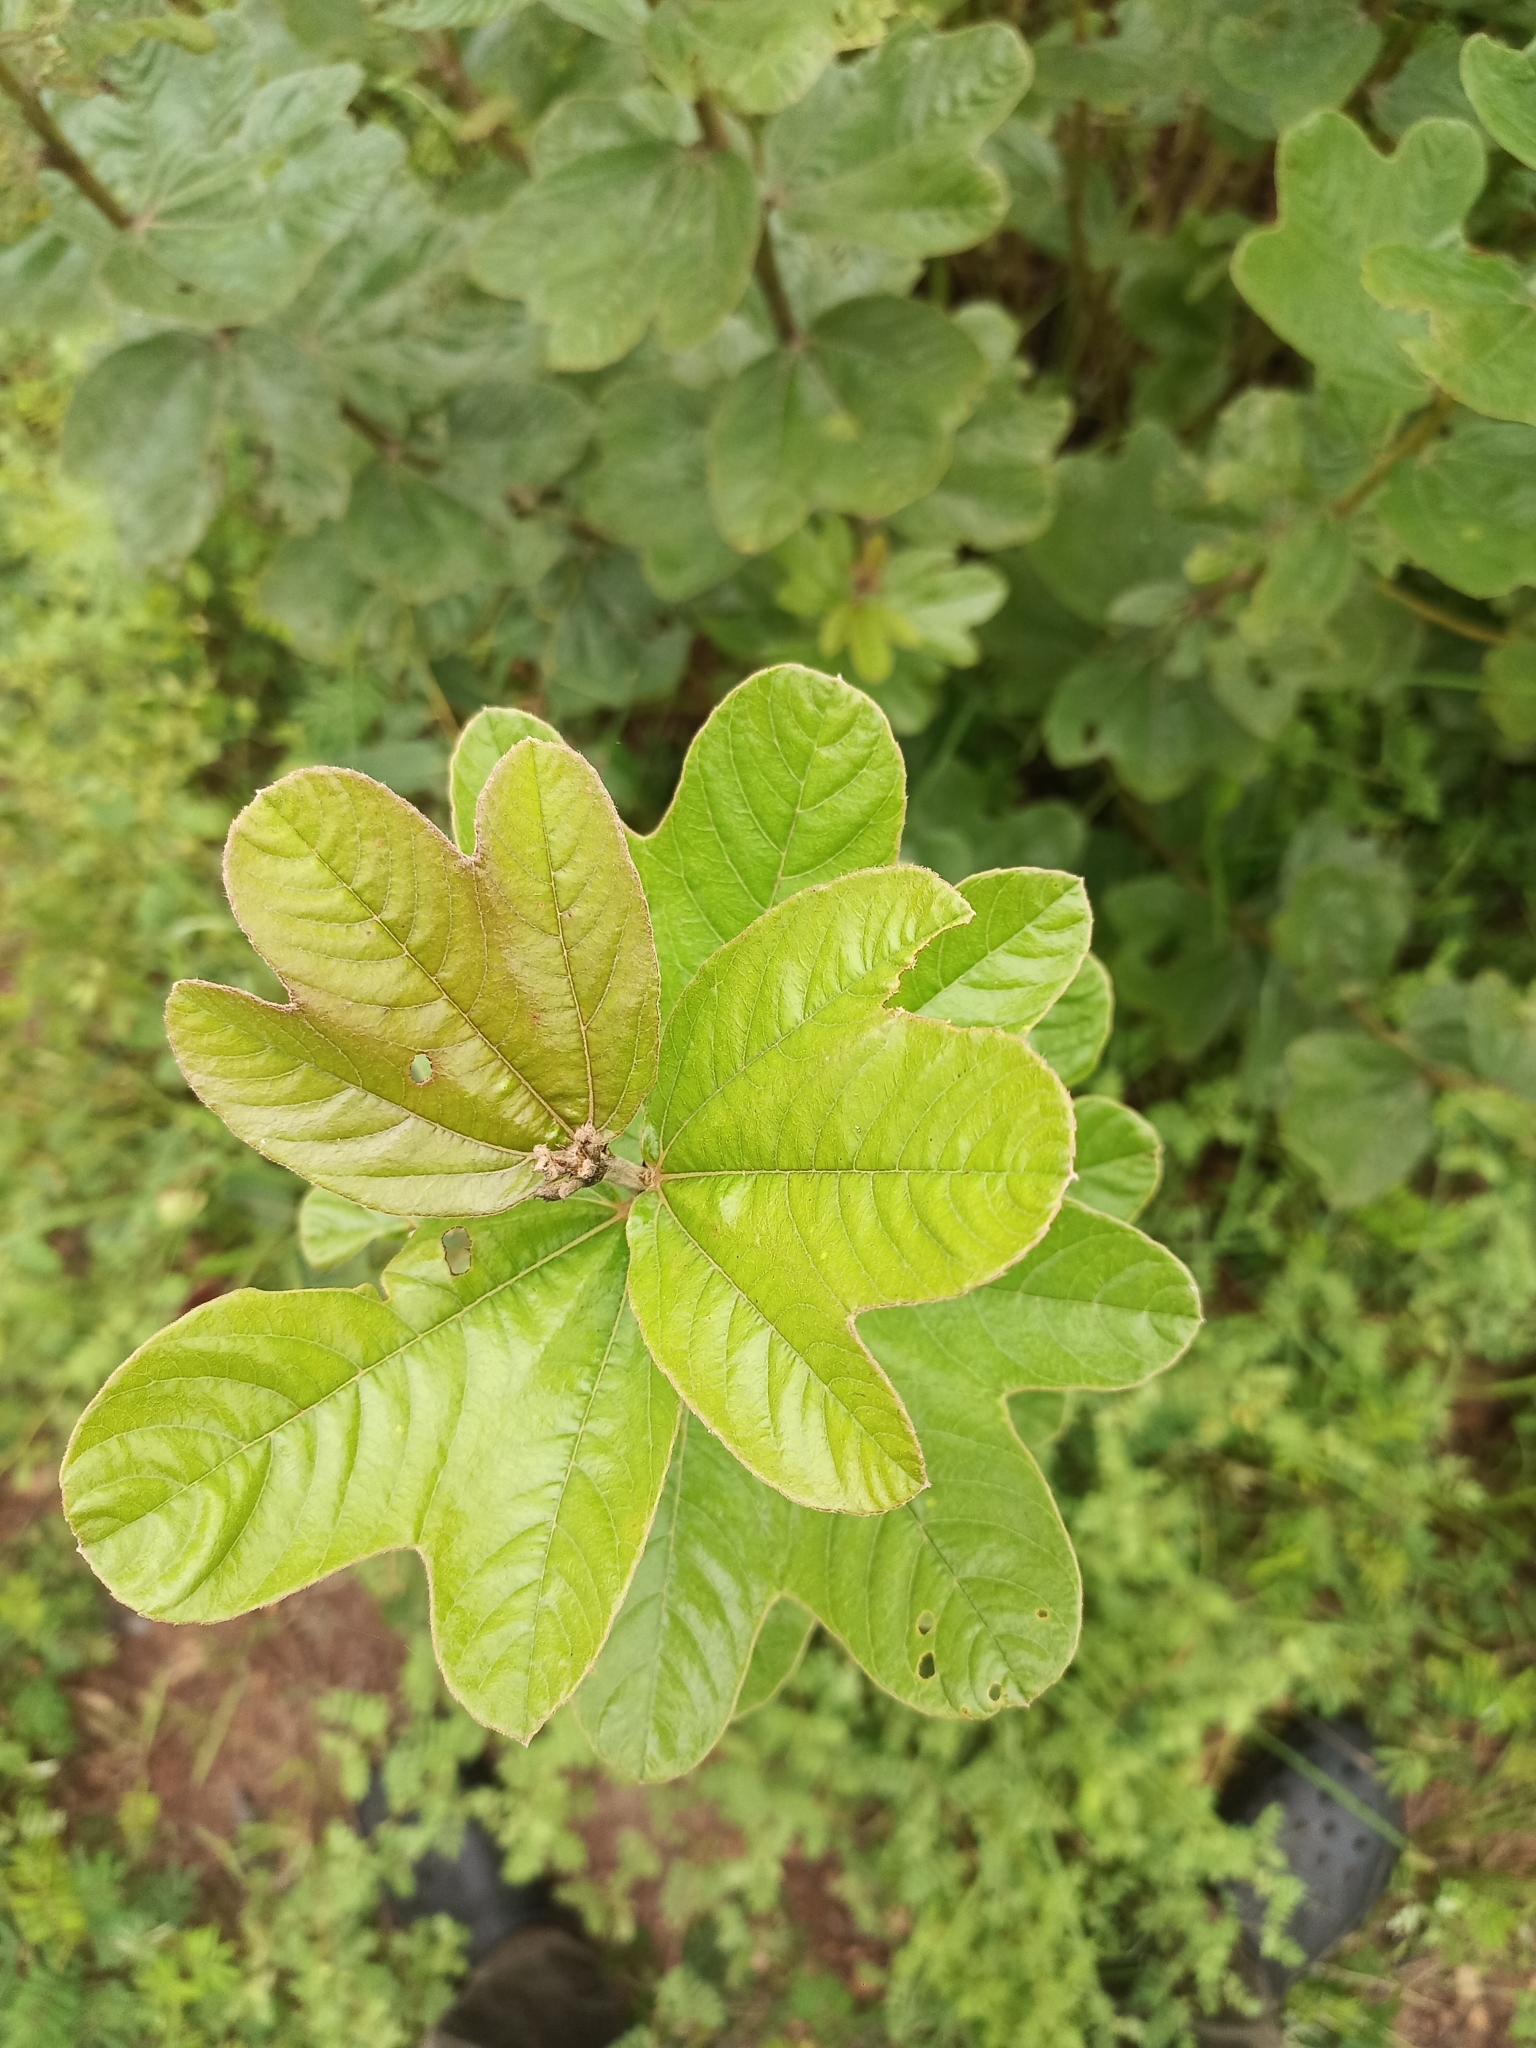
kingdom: Plantae
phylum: Tracheophyta
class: Magnoliopsida
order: Malvales
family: Cochlospermaceae
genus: Cochlospermum
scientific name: Cochlospermum planchonii
